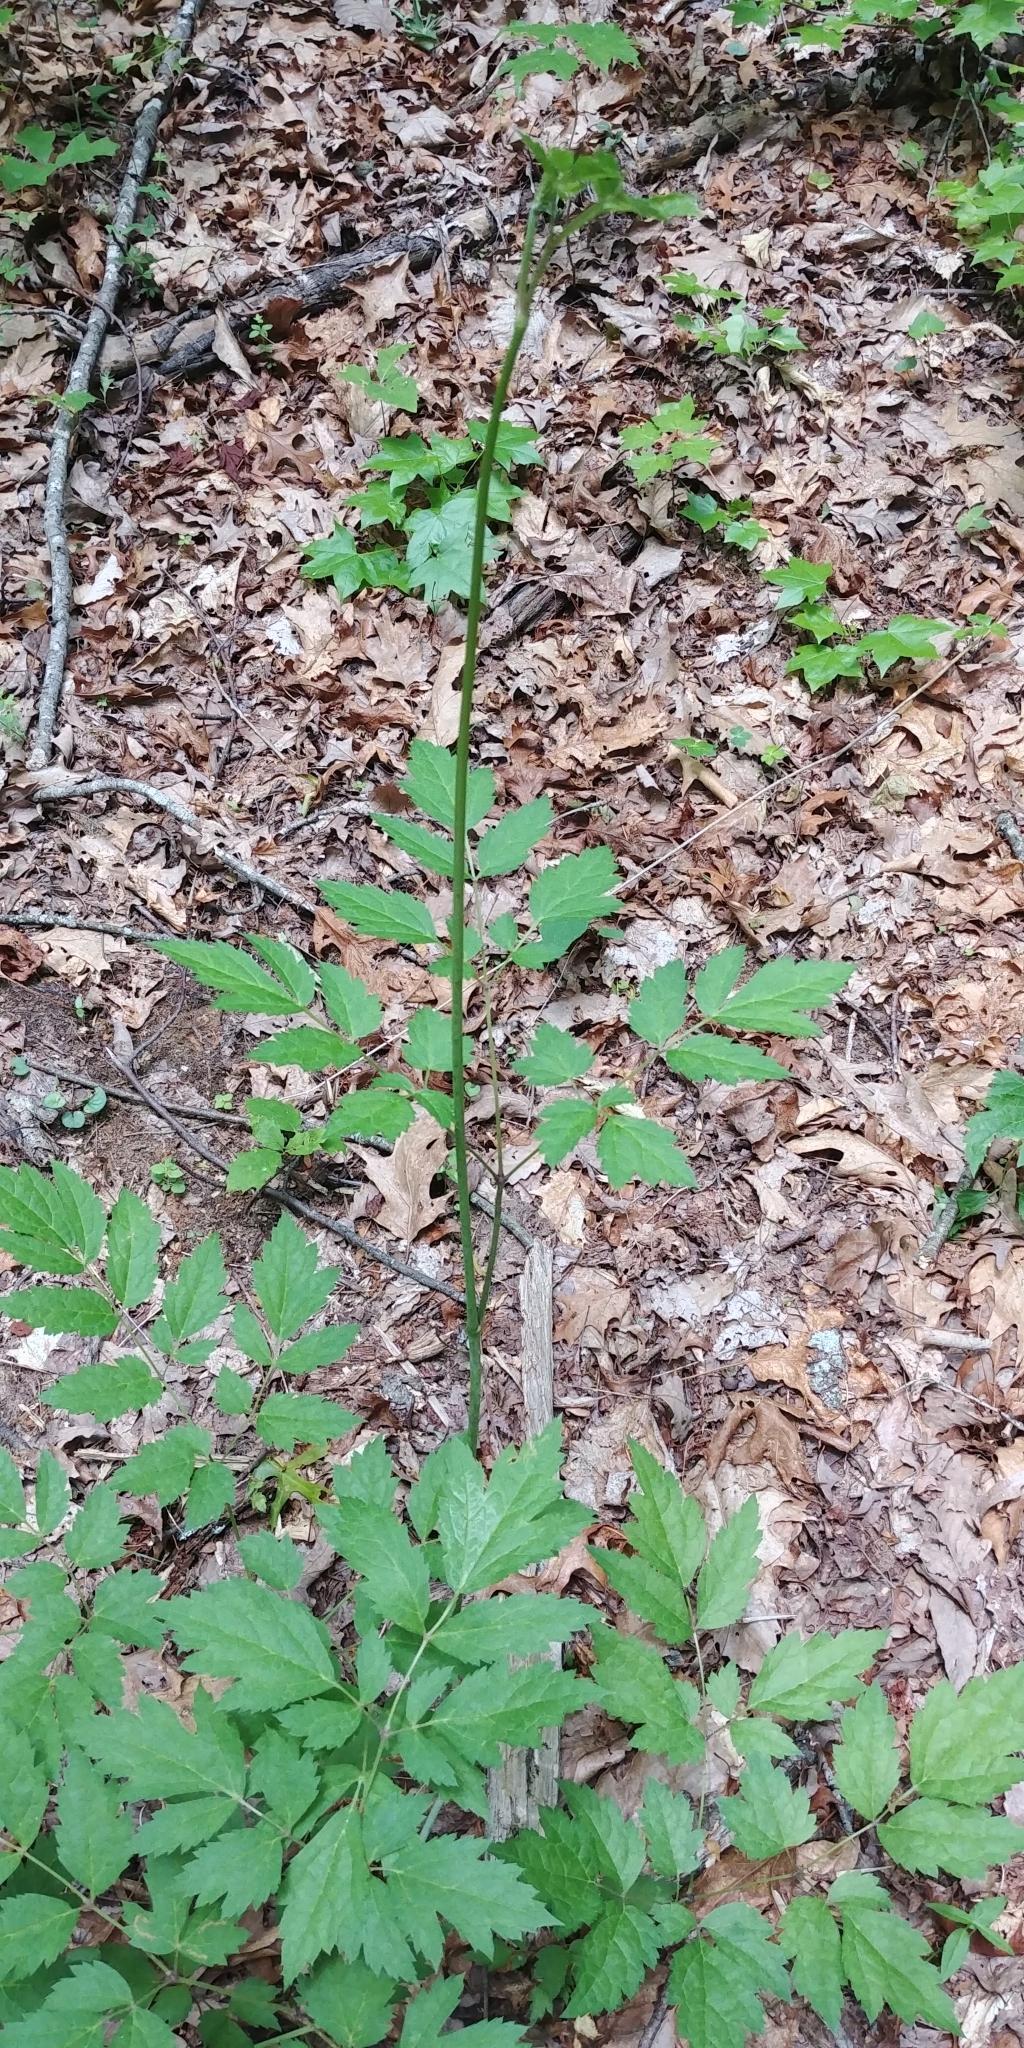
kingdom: Plantae
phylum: Tracheophyta
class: Magnoliopsida
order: Ranunculales
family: Ranunculaceae
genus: Actaea
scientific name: Actaea racemosa
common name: Black cohosh
